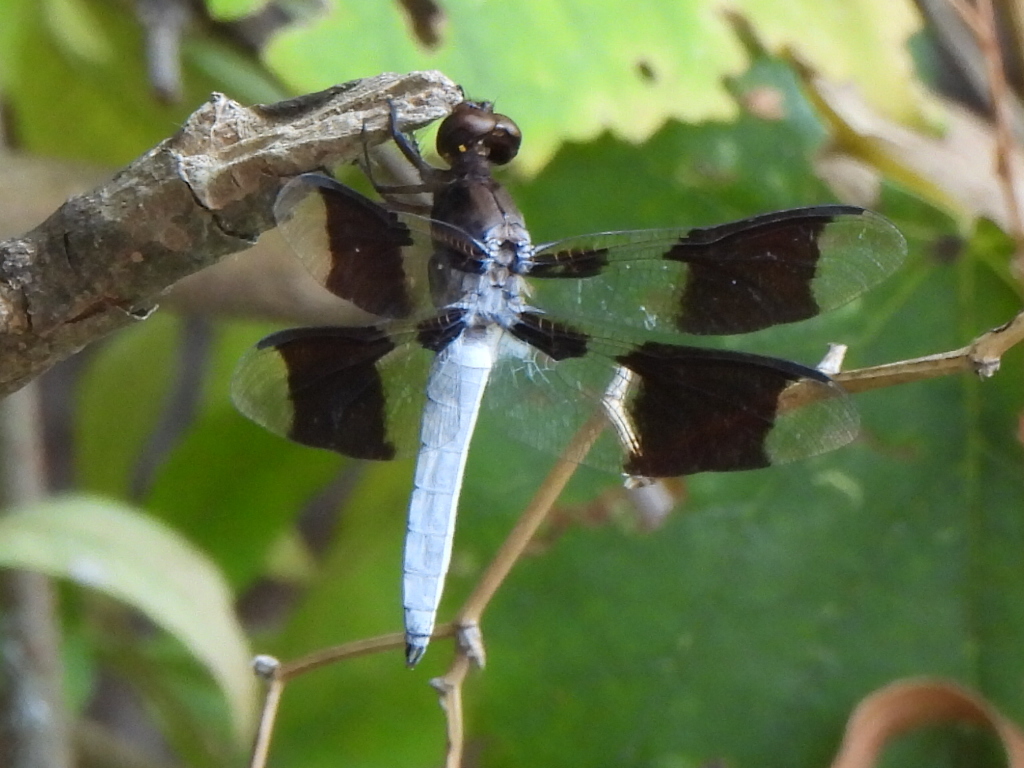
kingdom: Animalia
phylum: Arthropoda
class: Insecta
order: Odonata
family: Libellulidae
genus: Plathemis
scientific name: Plathemis lydia
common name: Common whitetail
